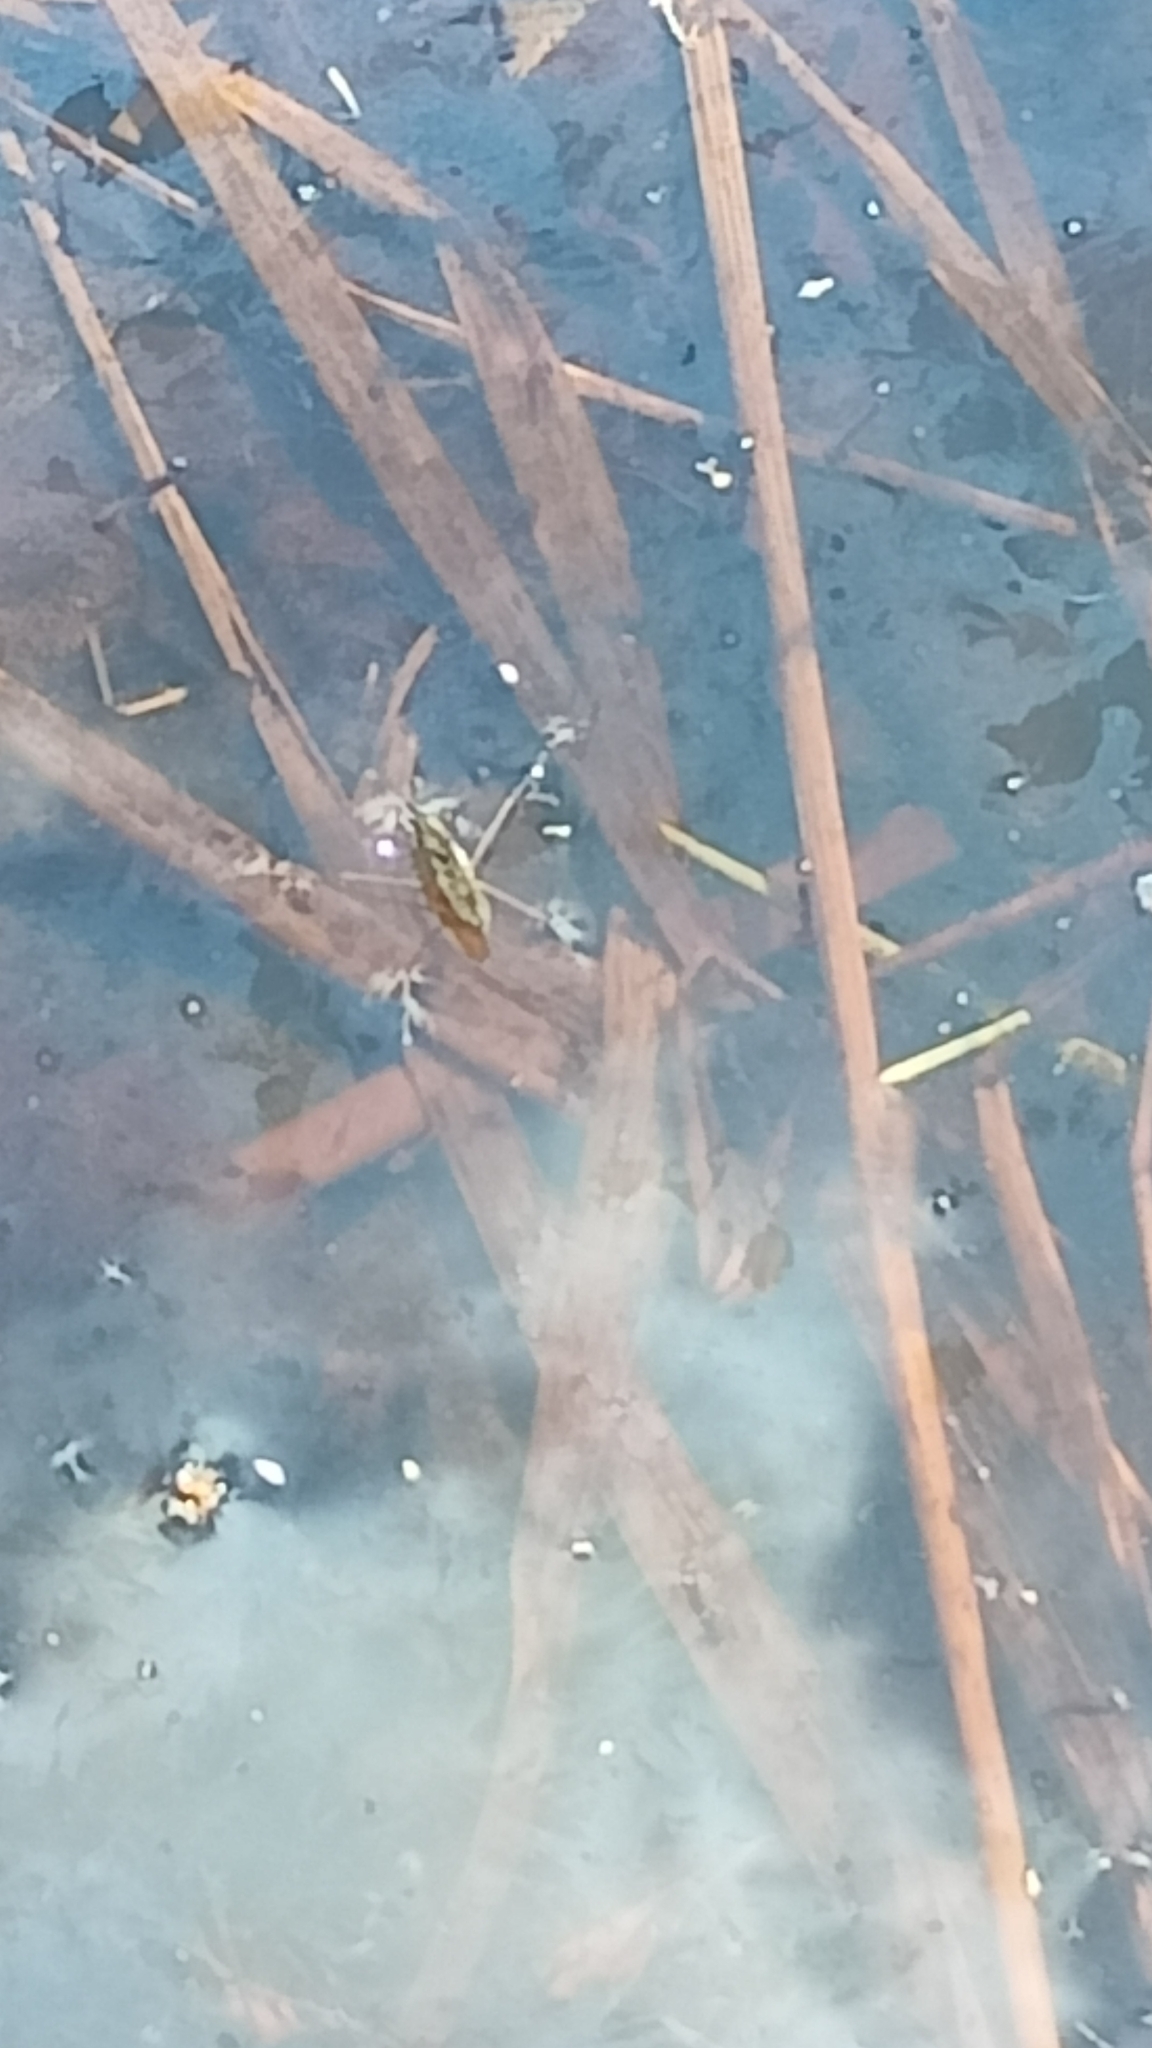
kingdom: Animalia
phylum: Arthropoda
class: Insecta
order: Hemiptera
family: Gerridae
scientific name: Gerridae
